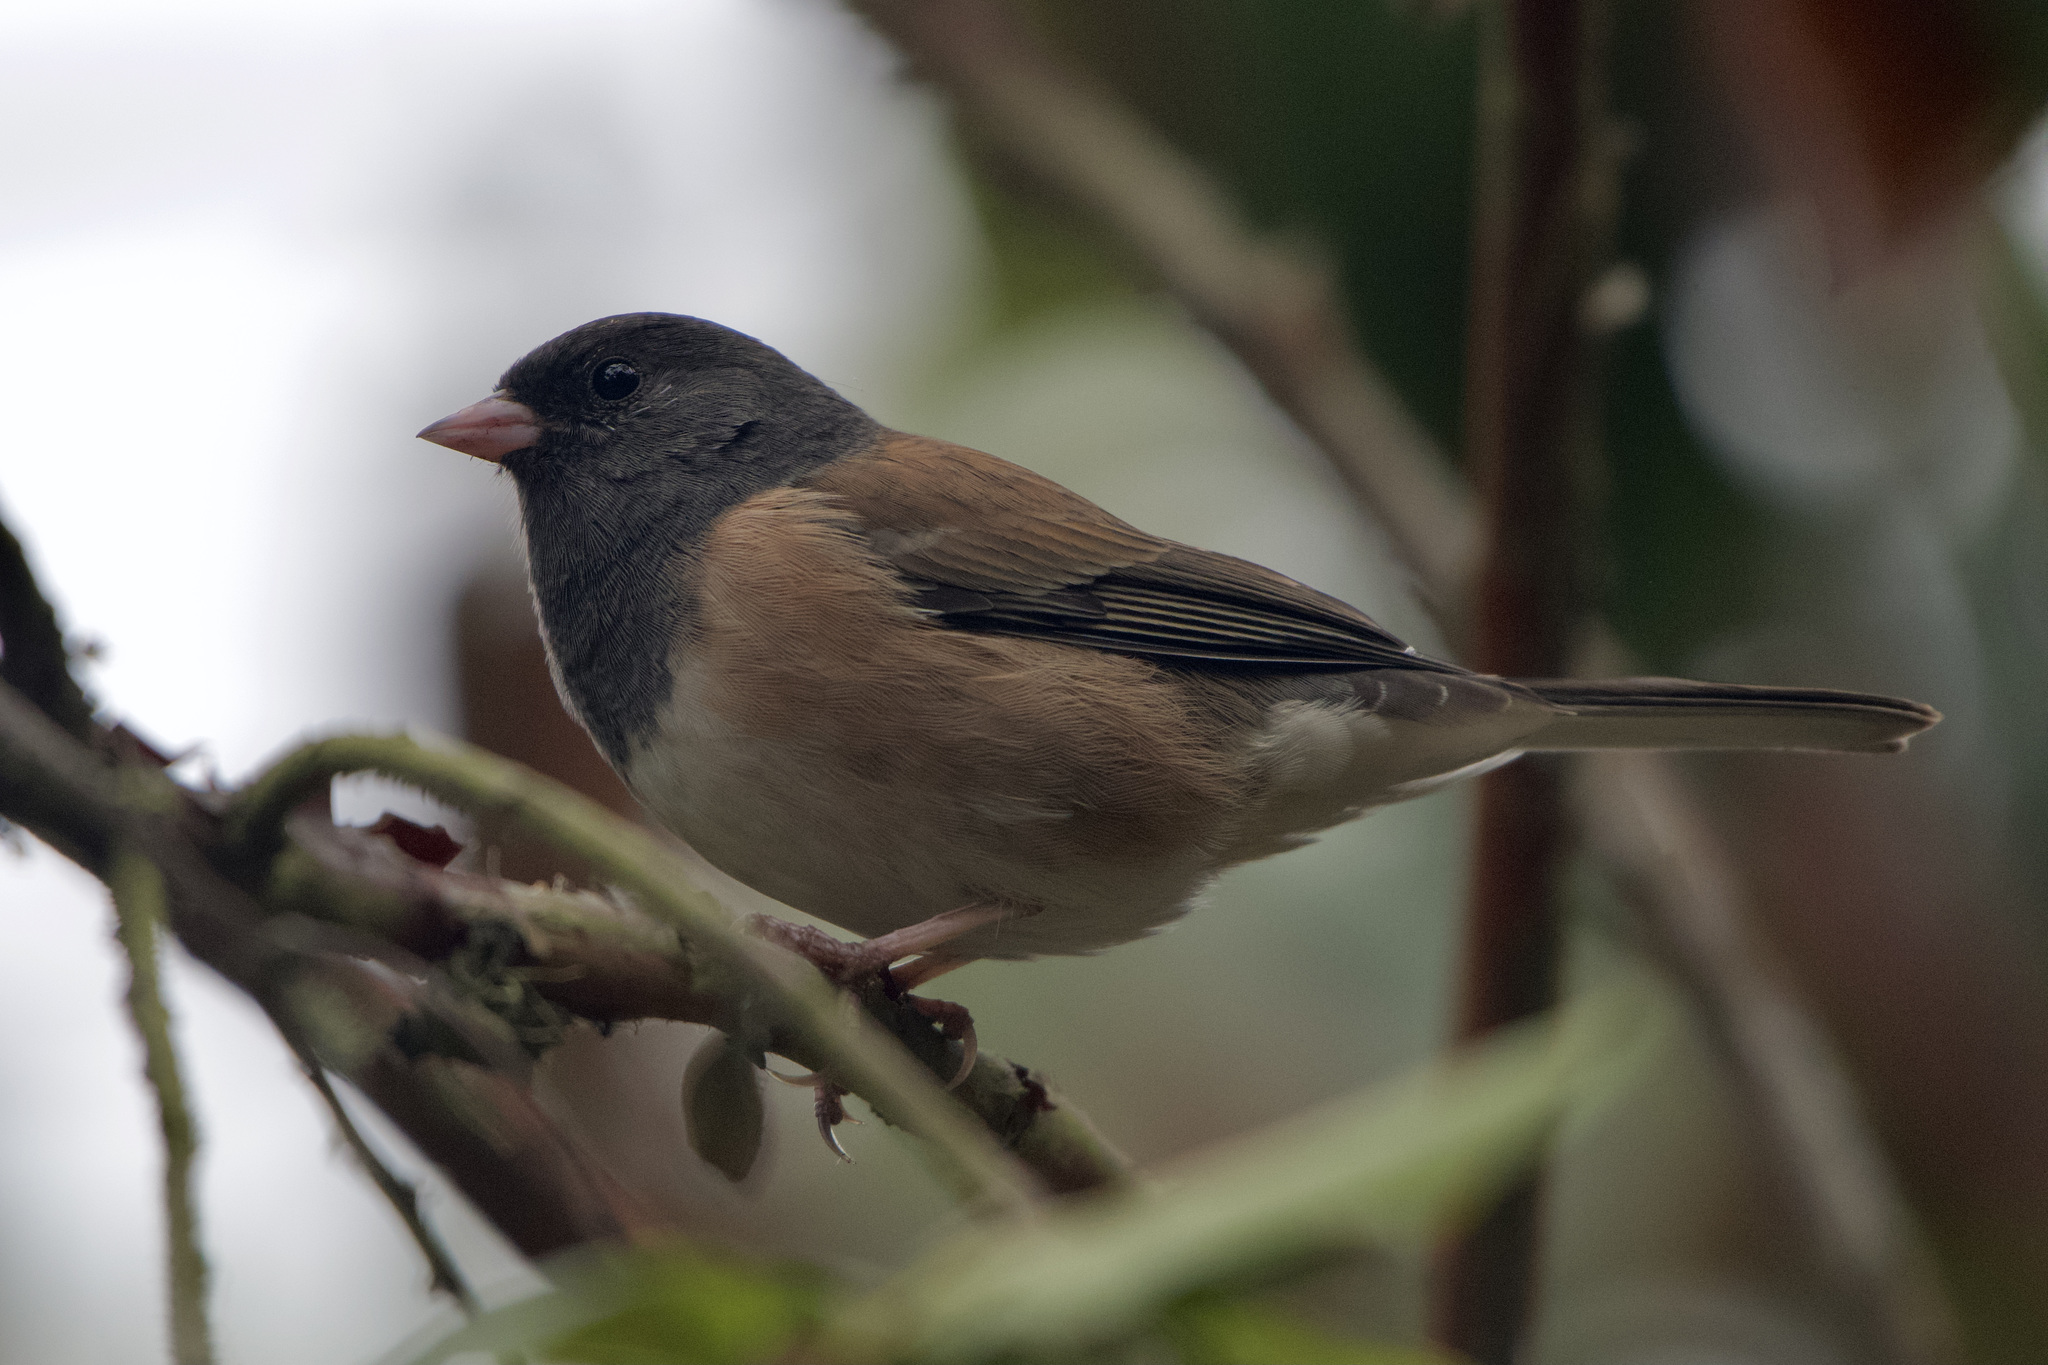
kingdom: Animalia
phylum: Chordata
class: Aves
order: Passeriformes
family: Passerellidae
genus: Junco
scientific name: Junco hyemalis
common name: Dark-eyed junco
